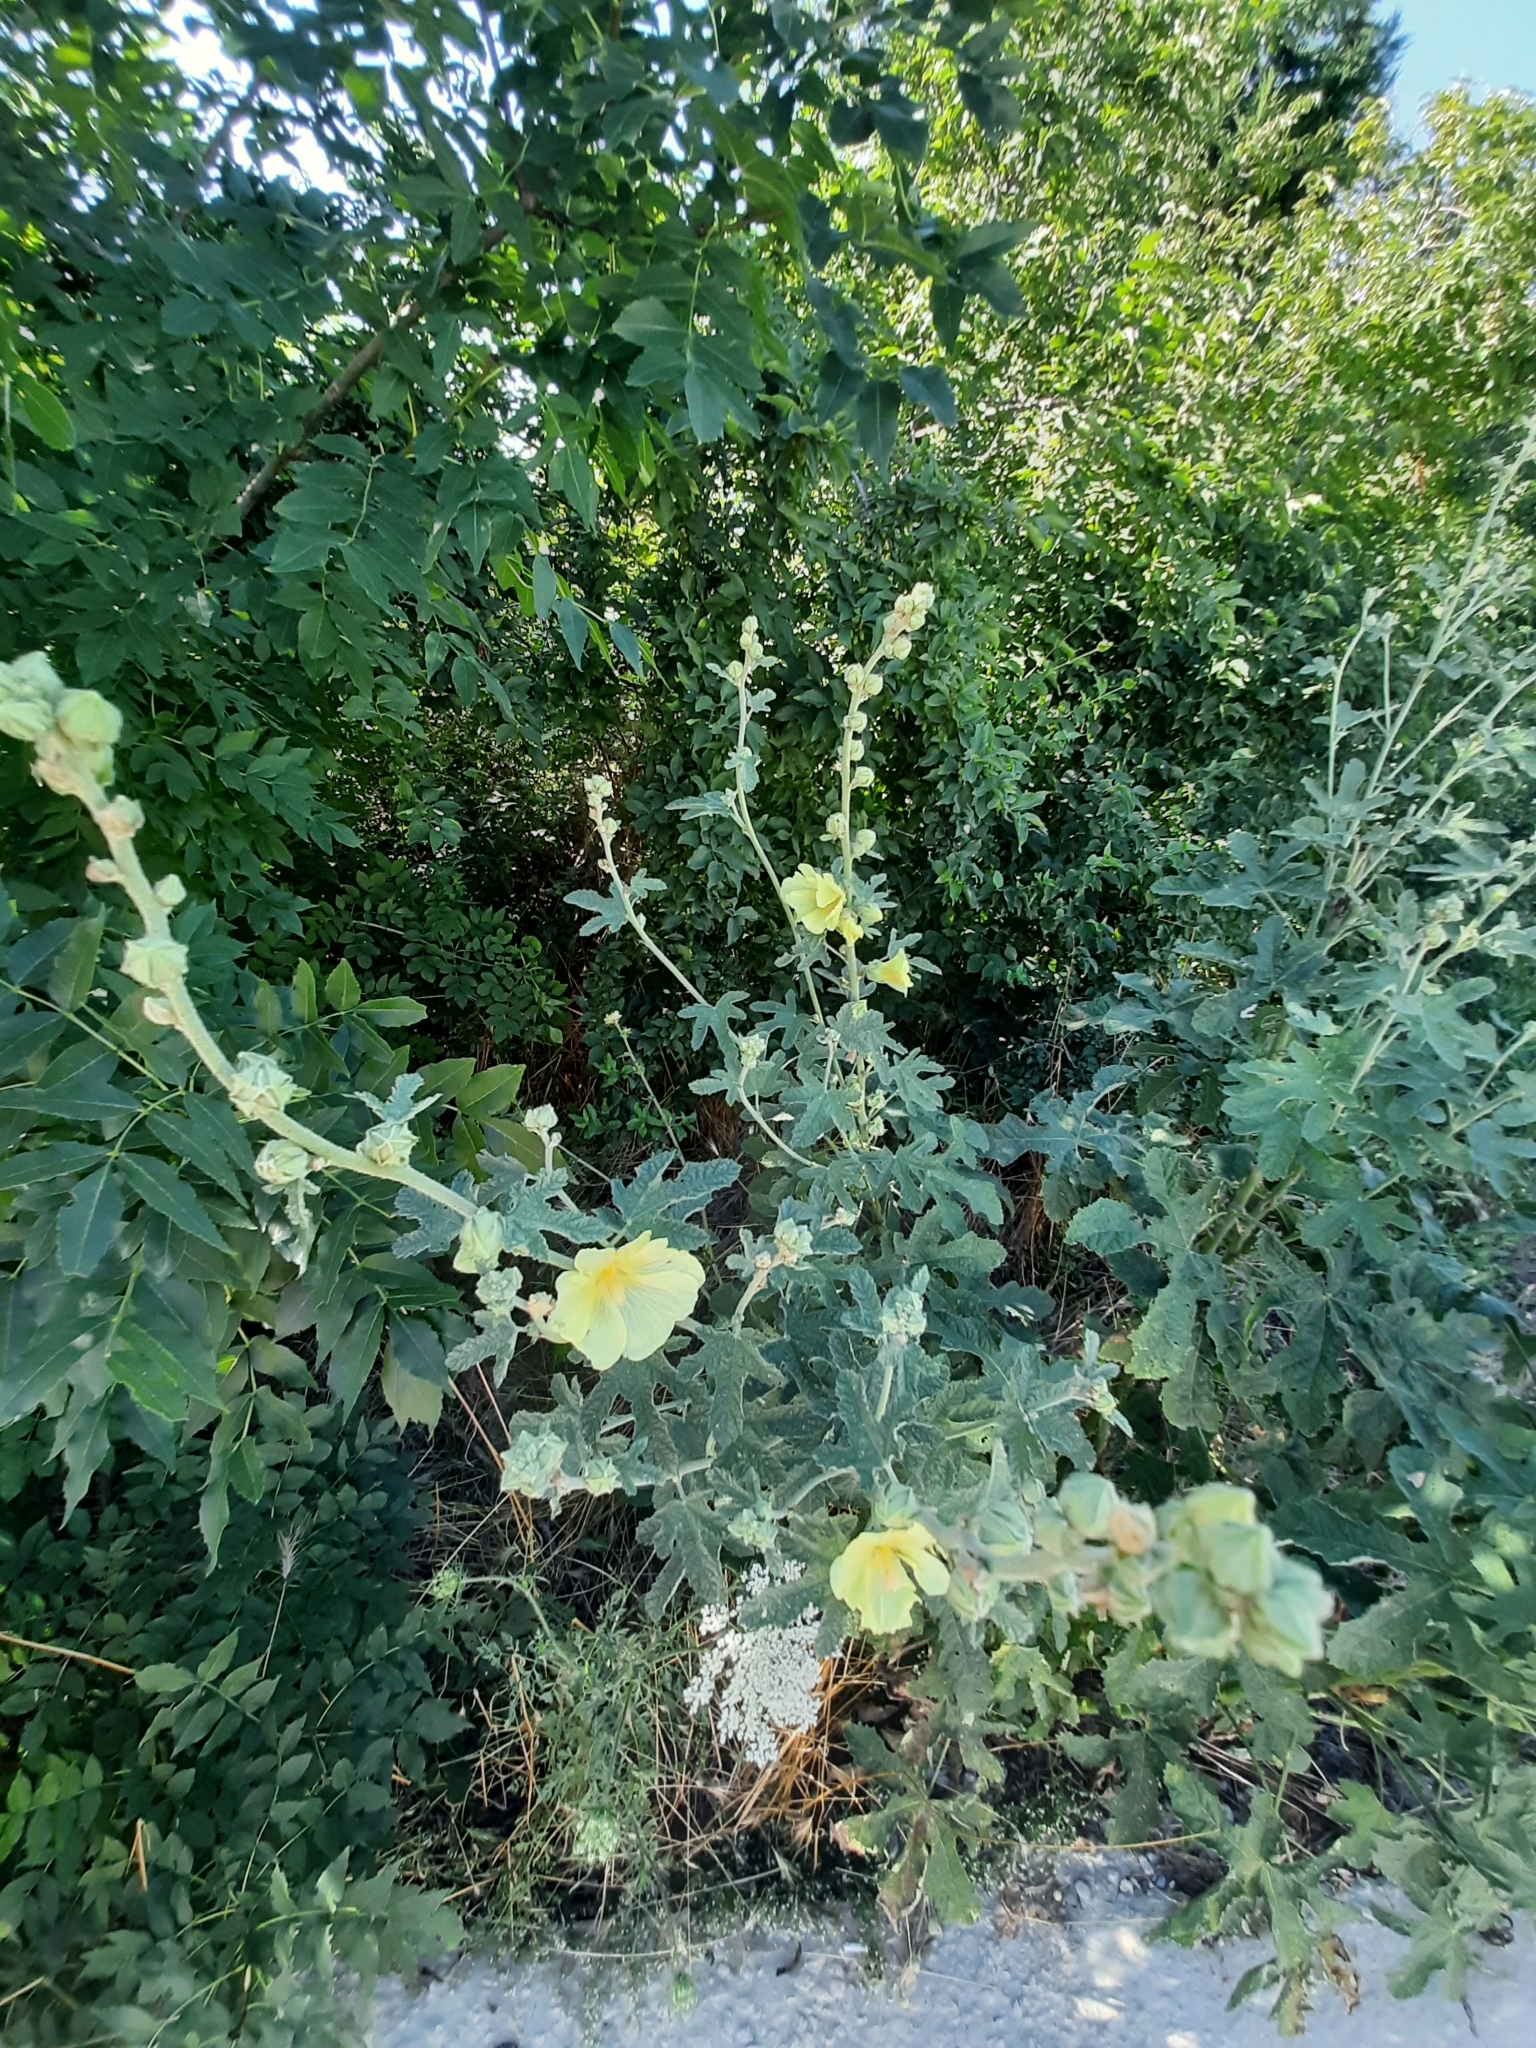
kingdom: Plantae
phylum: Tracheophyta
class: Magnoliopsida
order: Malvales
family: Malvaceae
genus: Alcea
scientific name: Alcea rugosa
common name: Russian hollyhock
